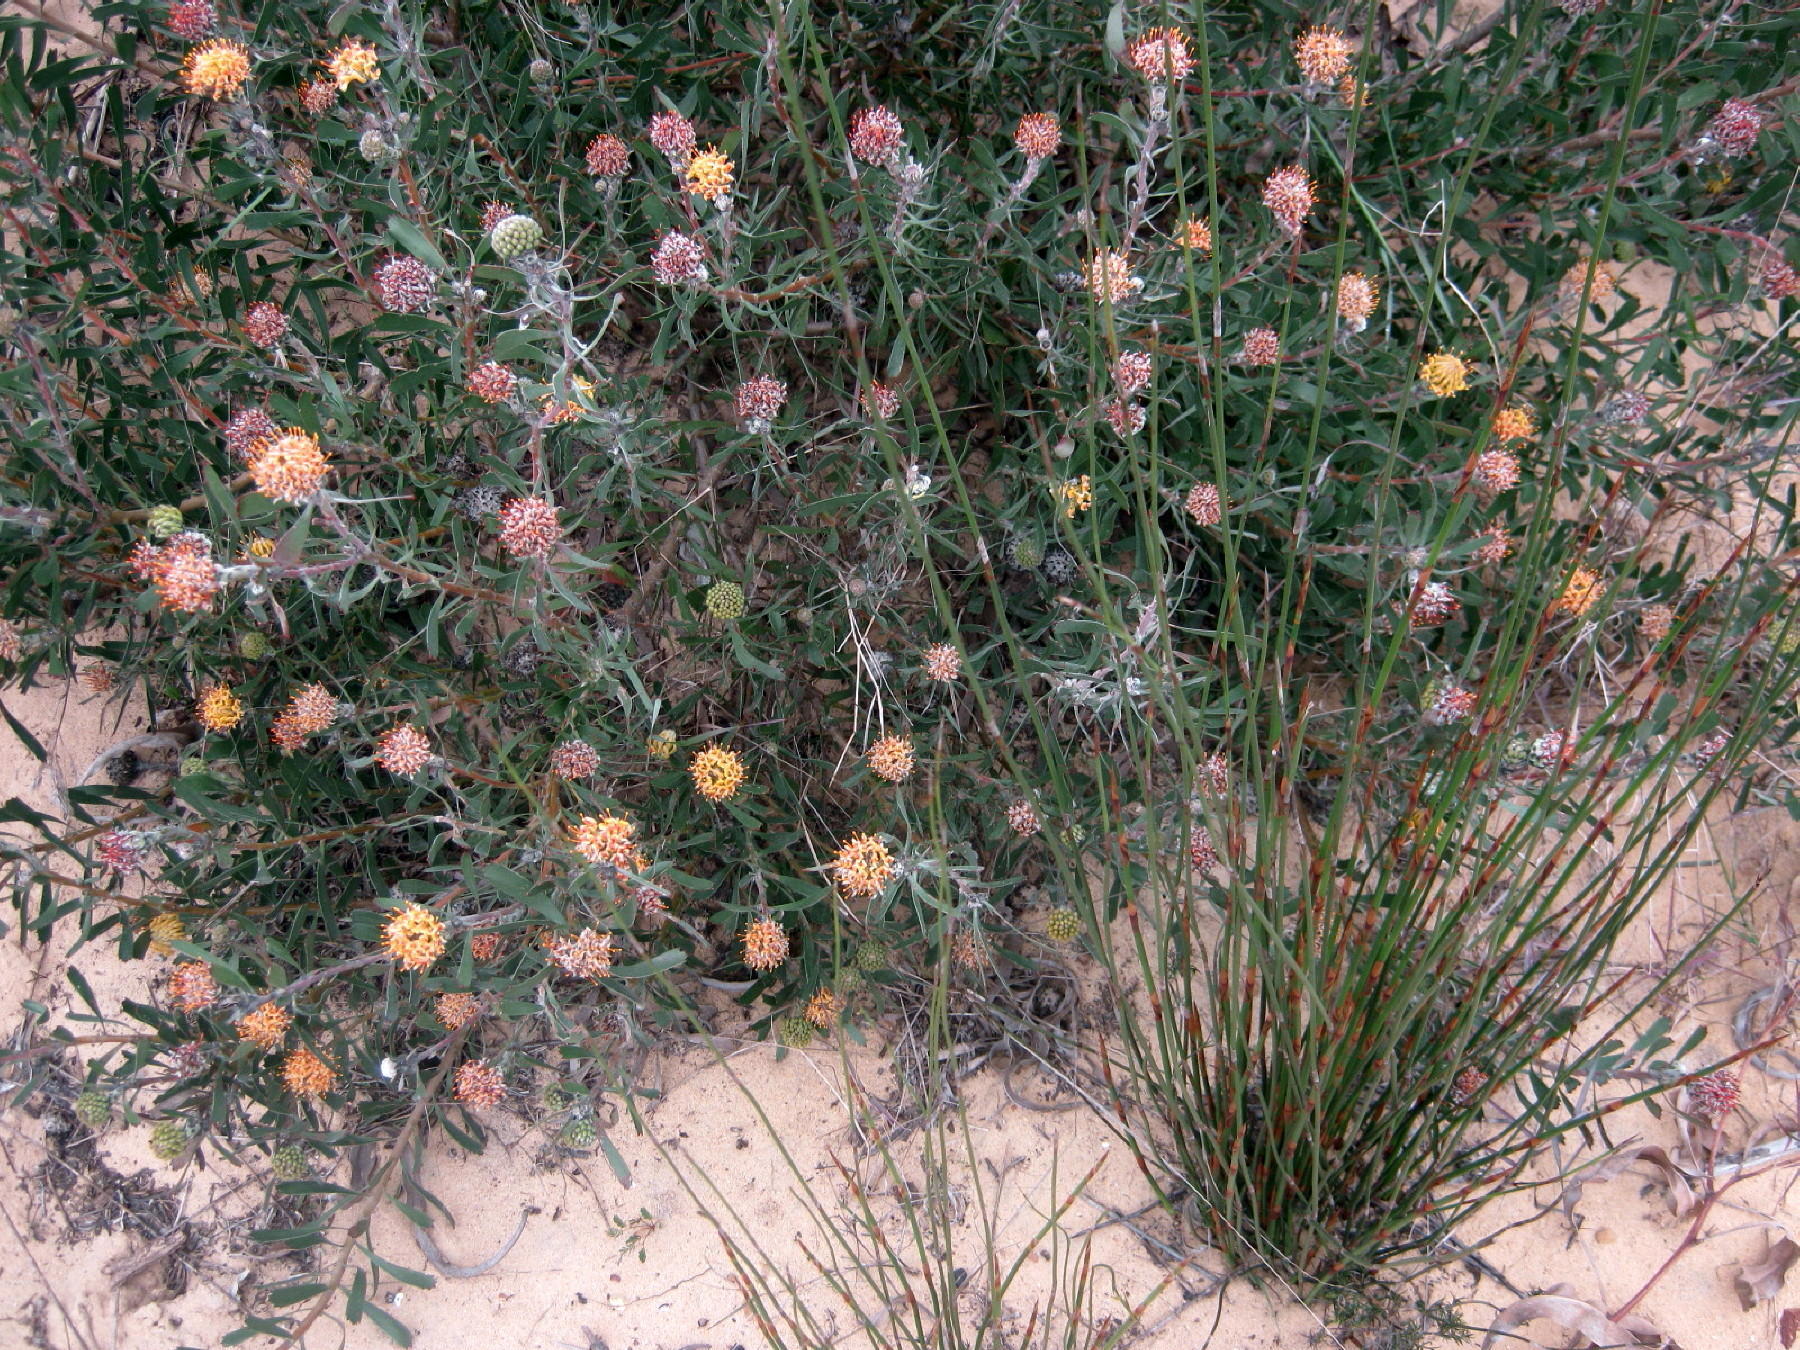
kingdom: Plantae
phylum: Tracheophyta
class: Magnoliopsida
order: Proteales
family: Proteaceae
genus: Leucospermum
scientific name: Leucospermum muirii
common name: Albertinia pincushion
